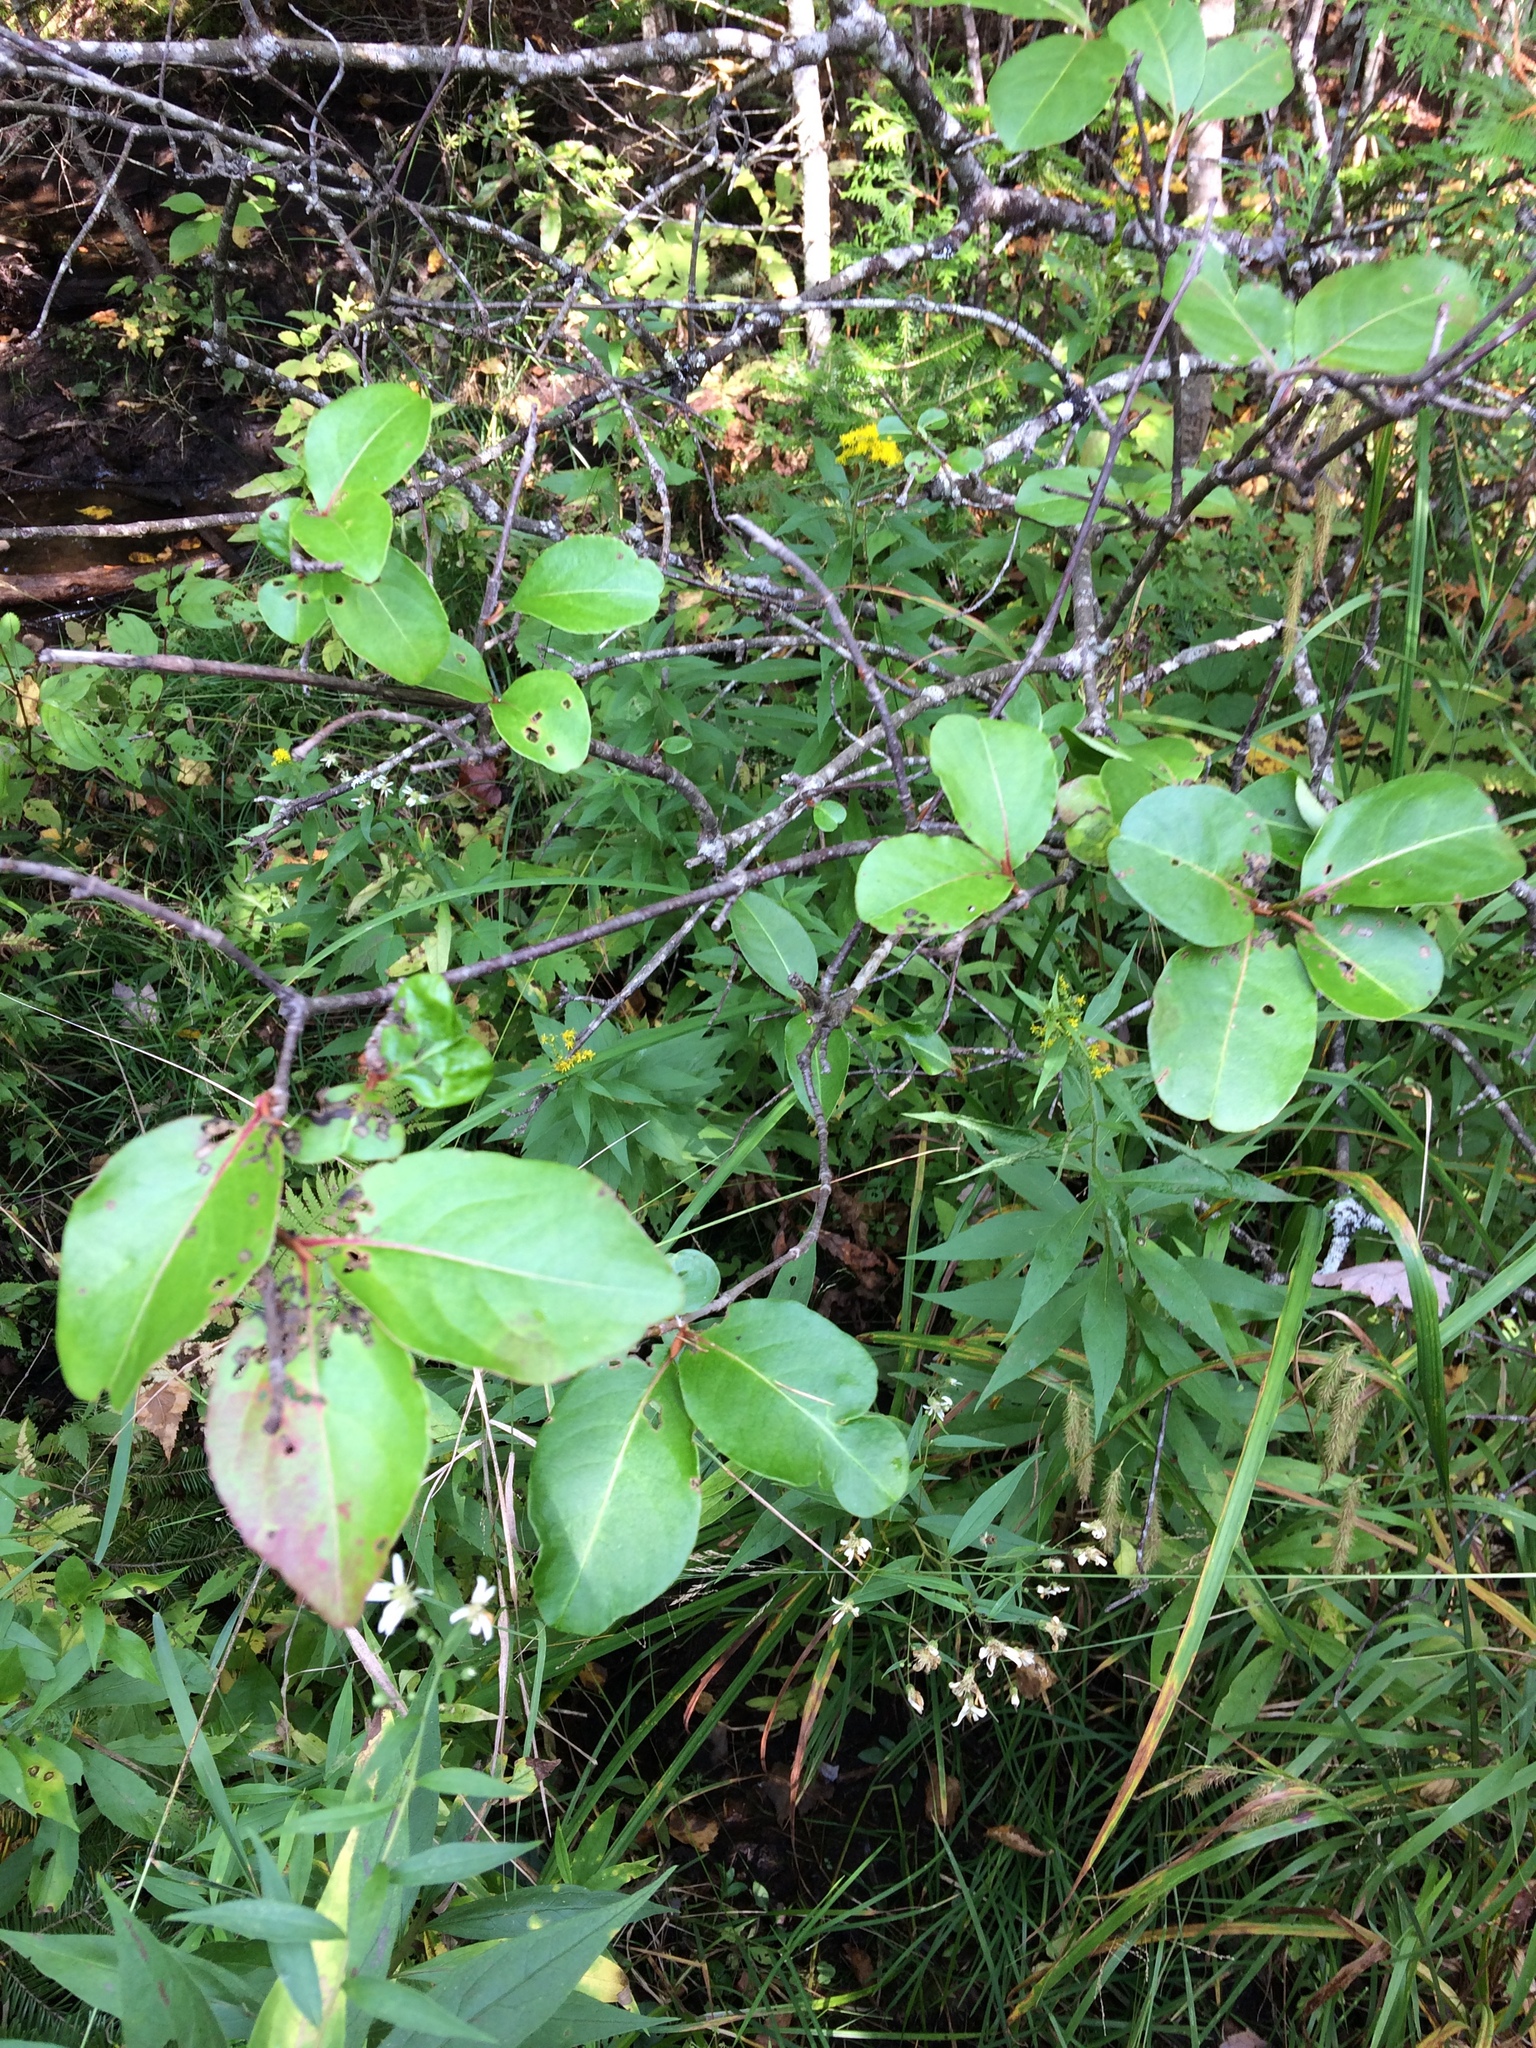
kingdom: Plantae
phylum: Tracheophyta
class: Magnoliopsida
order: Dipsacales
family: Viburnaceae
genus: Viburnum
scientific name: Viburnum cassinoides
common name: Swamp haw
